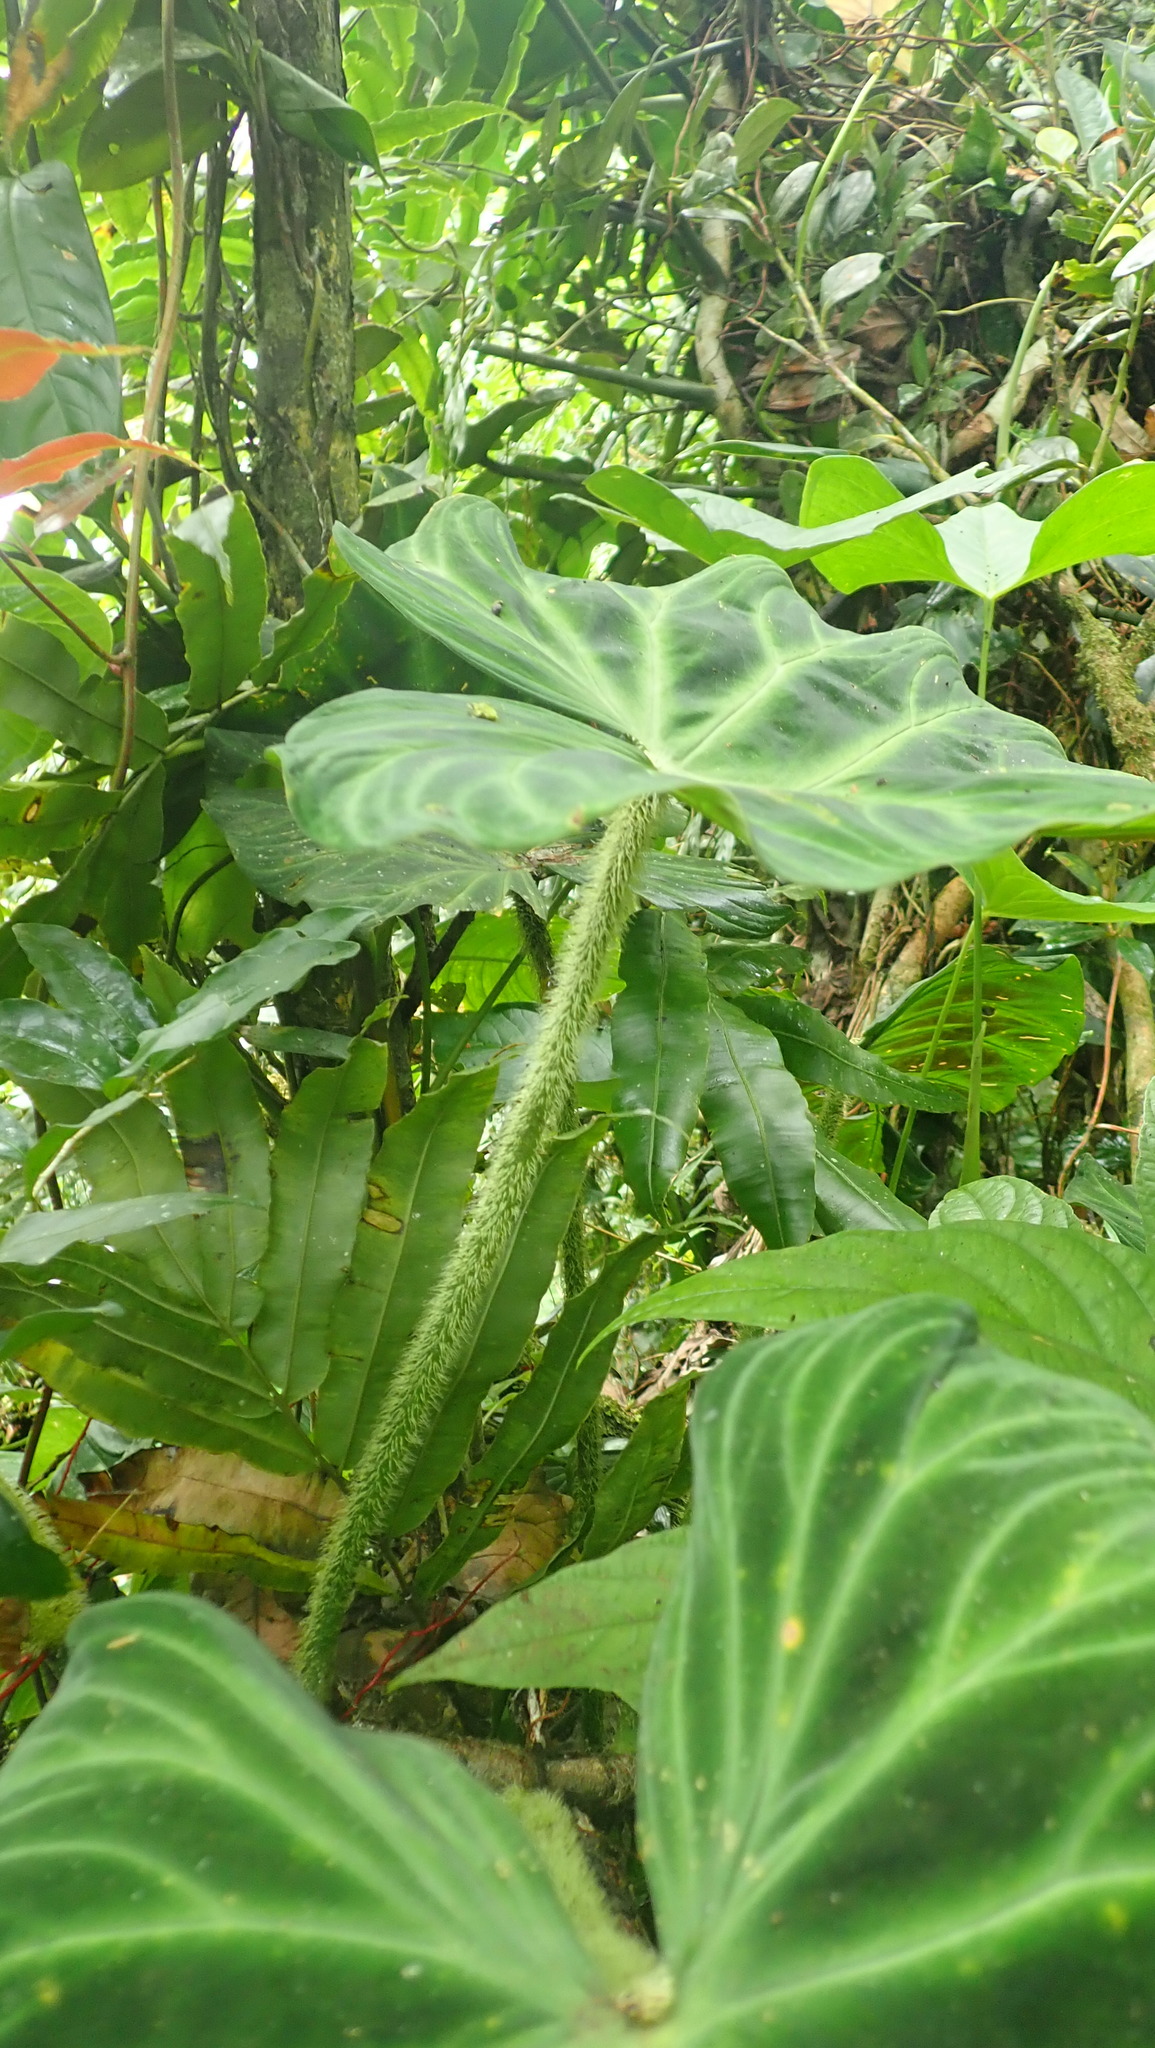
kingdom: Plantae
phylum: Tracheophyta
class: Liliopsida
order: Alismatales
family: Araceae
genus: Philodendron
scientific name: Philodendron verrucosum
